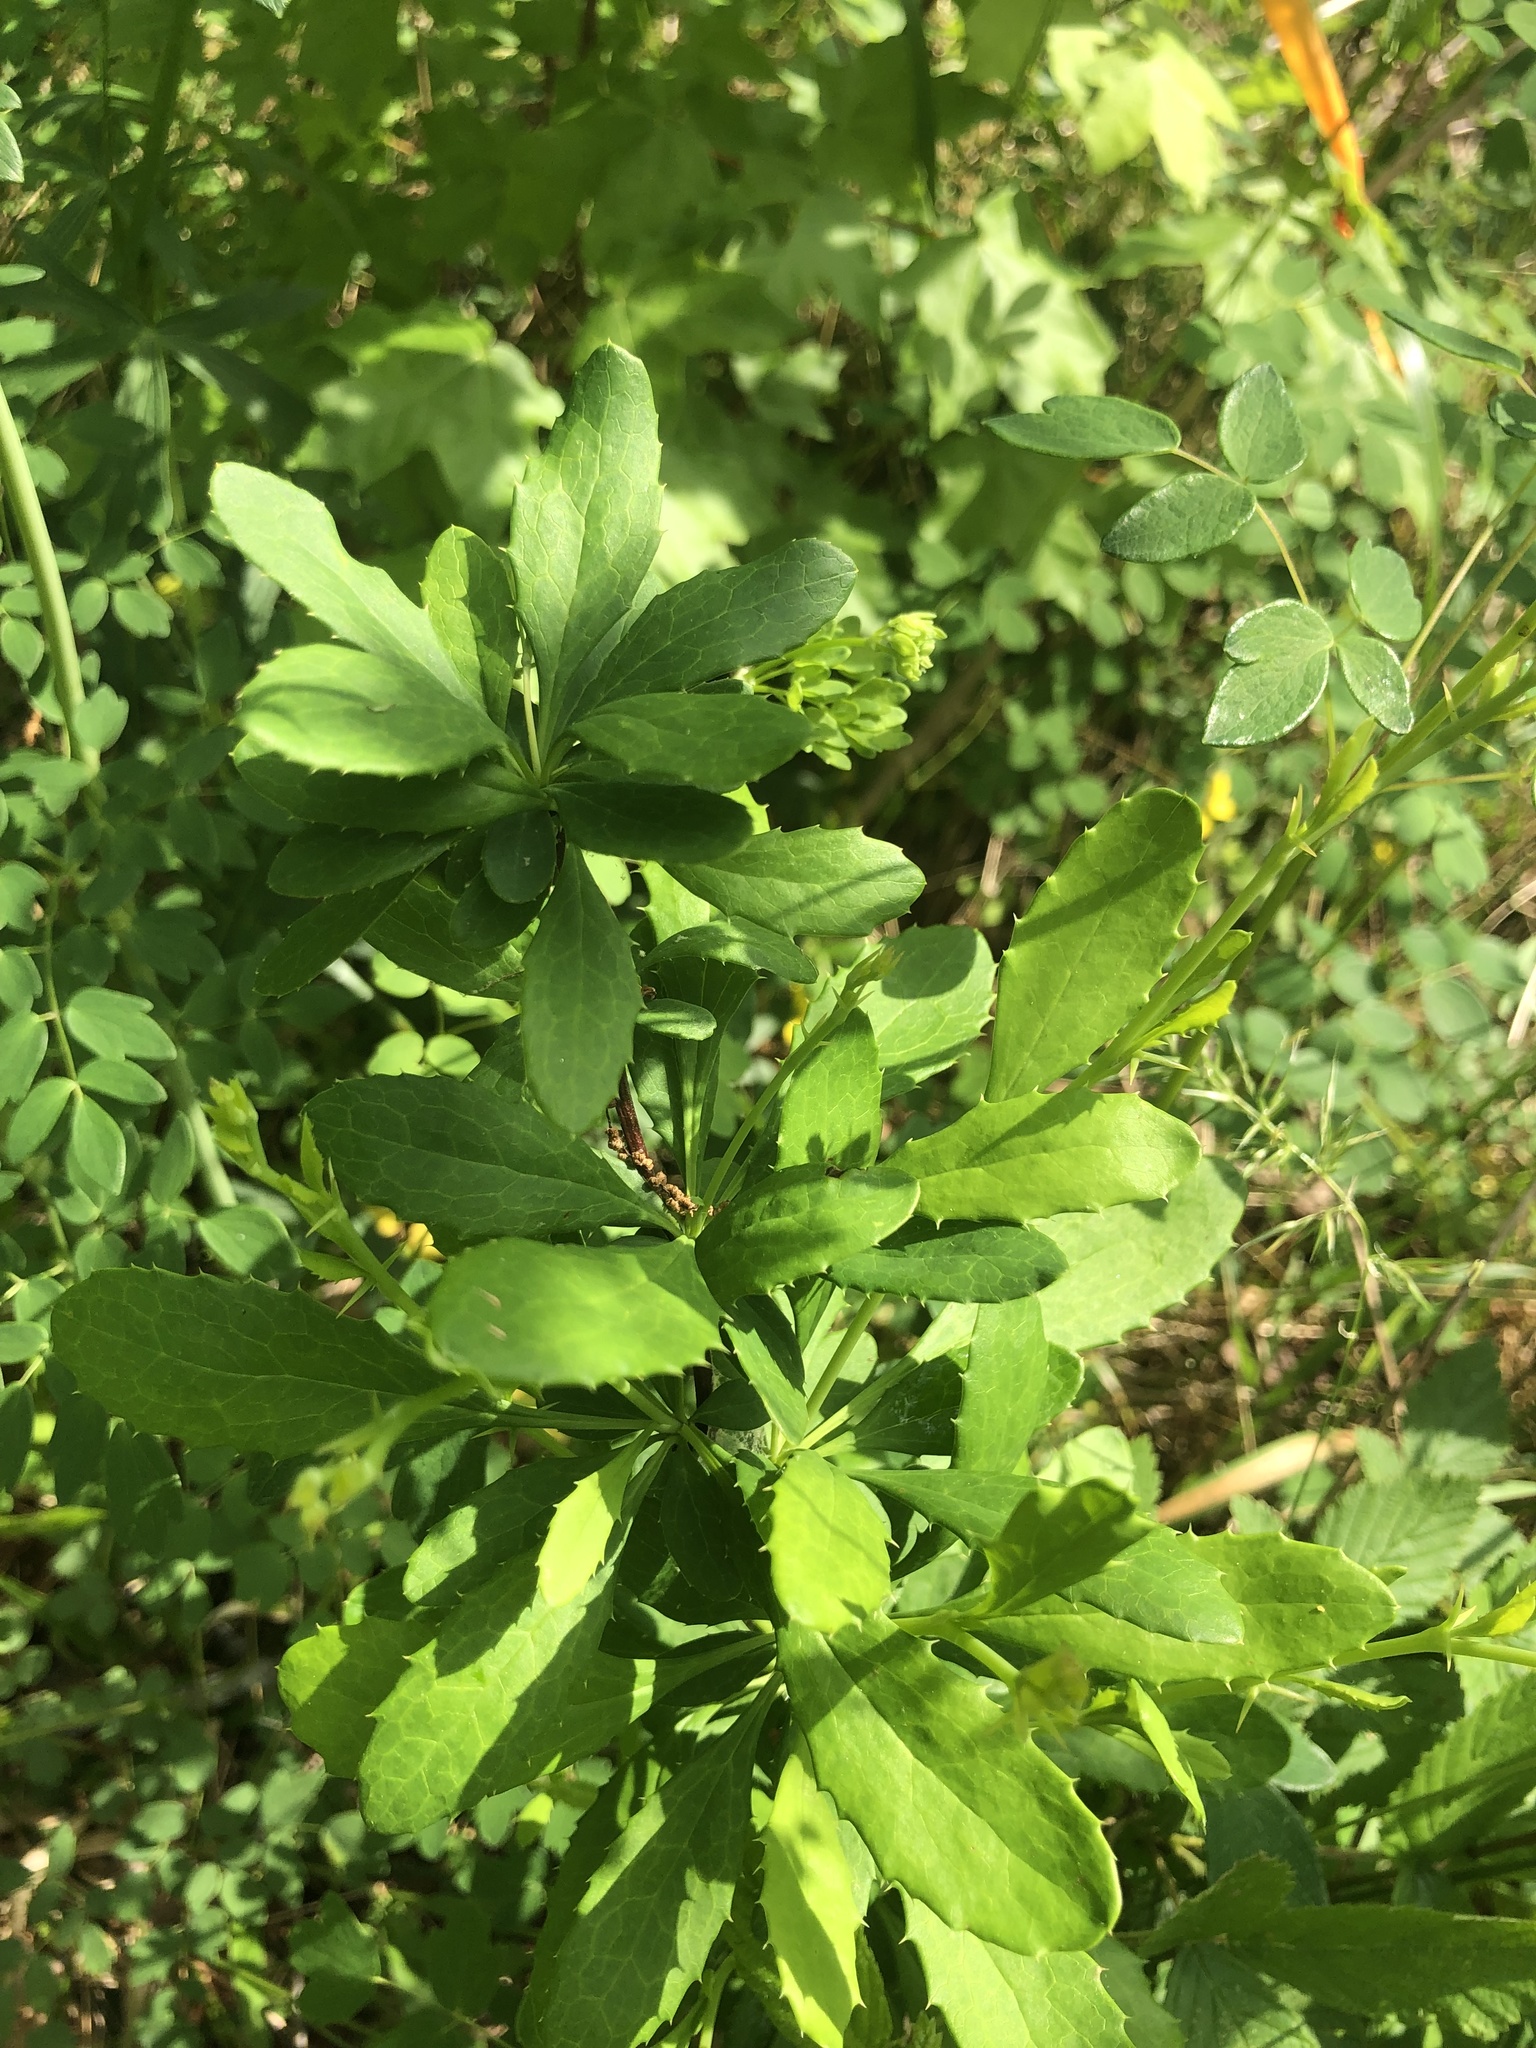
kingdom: Plantae
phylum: Tracheophyta
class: Magnoliopsida
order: Ranunculales
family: Berberidaceae
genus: Berberis
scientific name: Berberis canadensis
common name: American barberry
